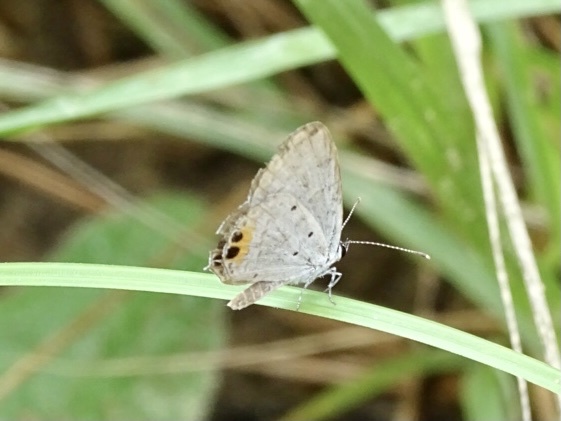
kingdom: Animalia
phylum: Arthropoda
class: Insecta
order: Lepidoptera
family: Lycaenidae
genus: Everes
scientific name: Everes lacturnus
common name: Orange-tipped pea-blue
